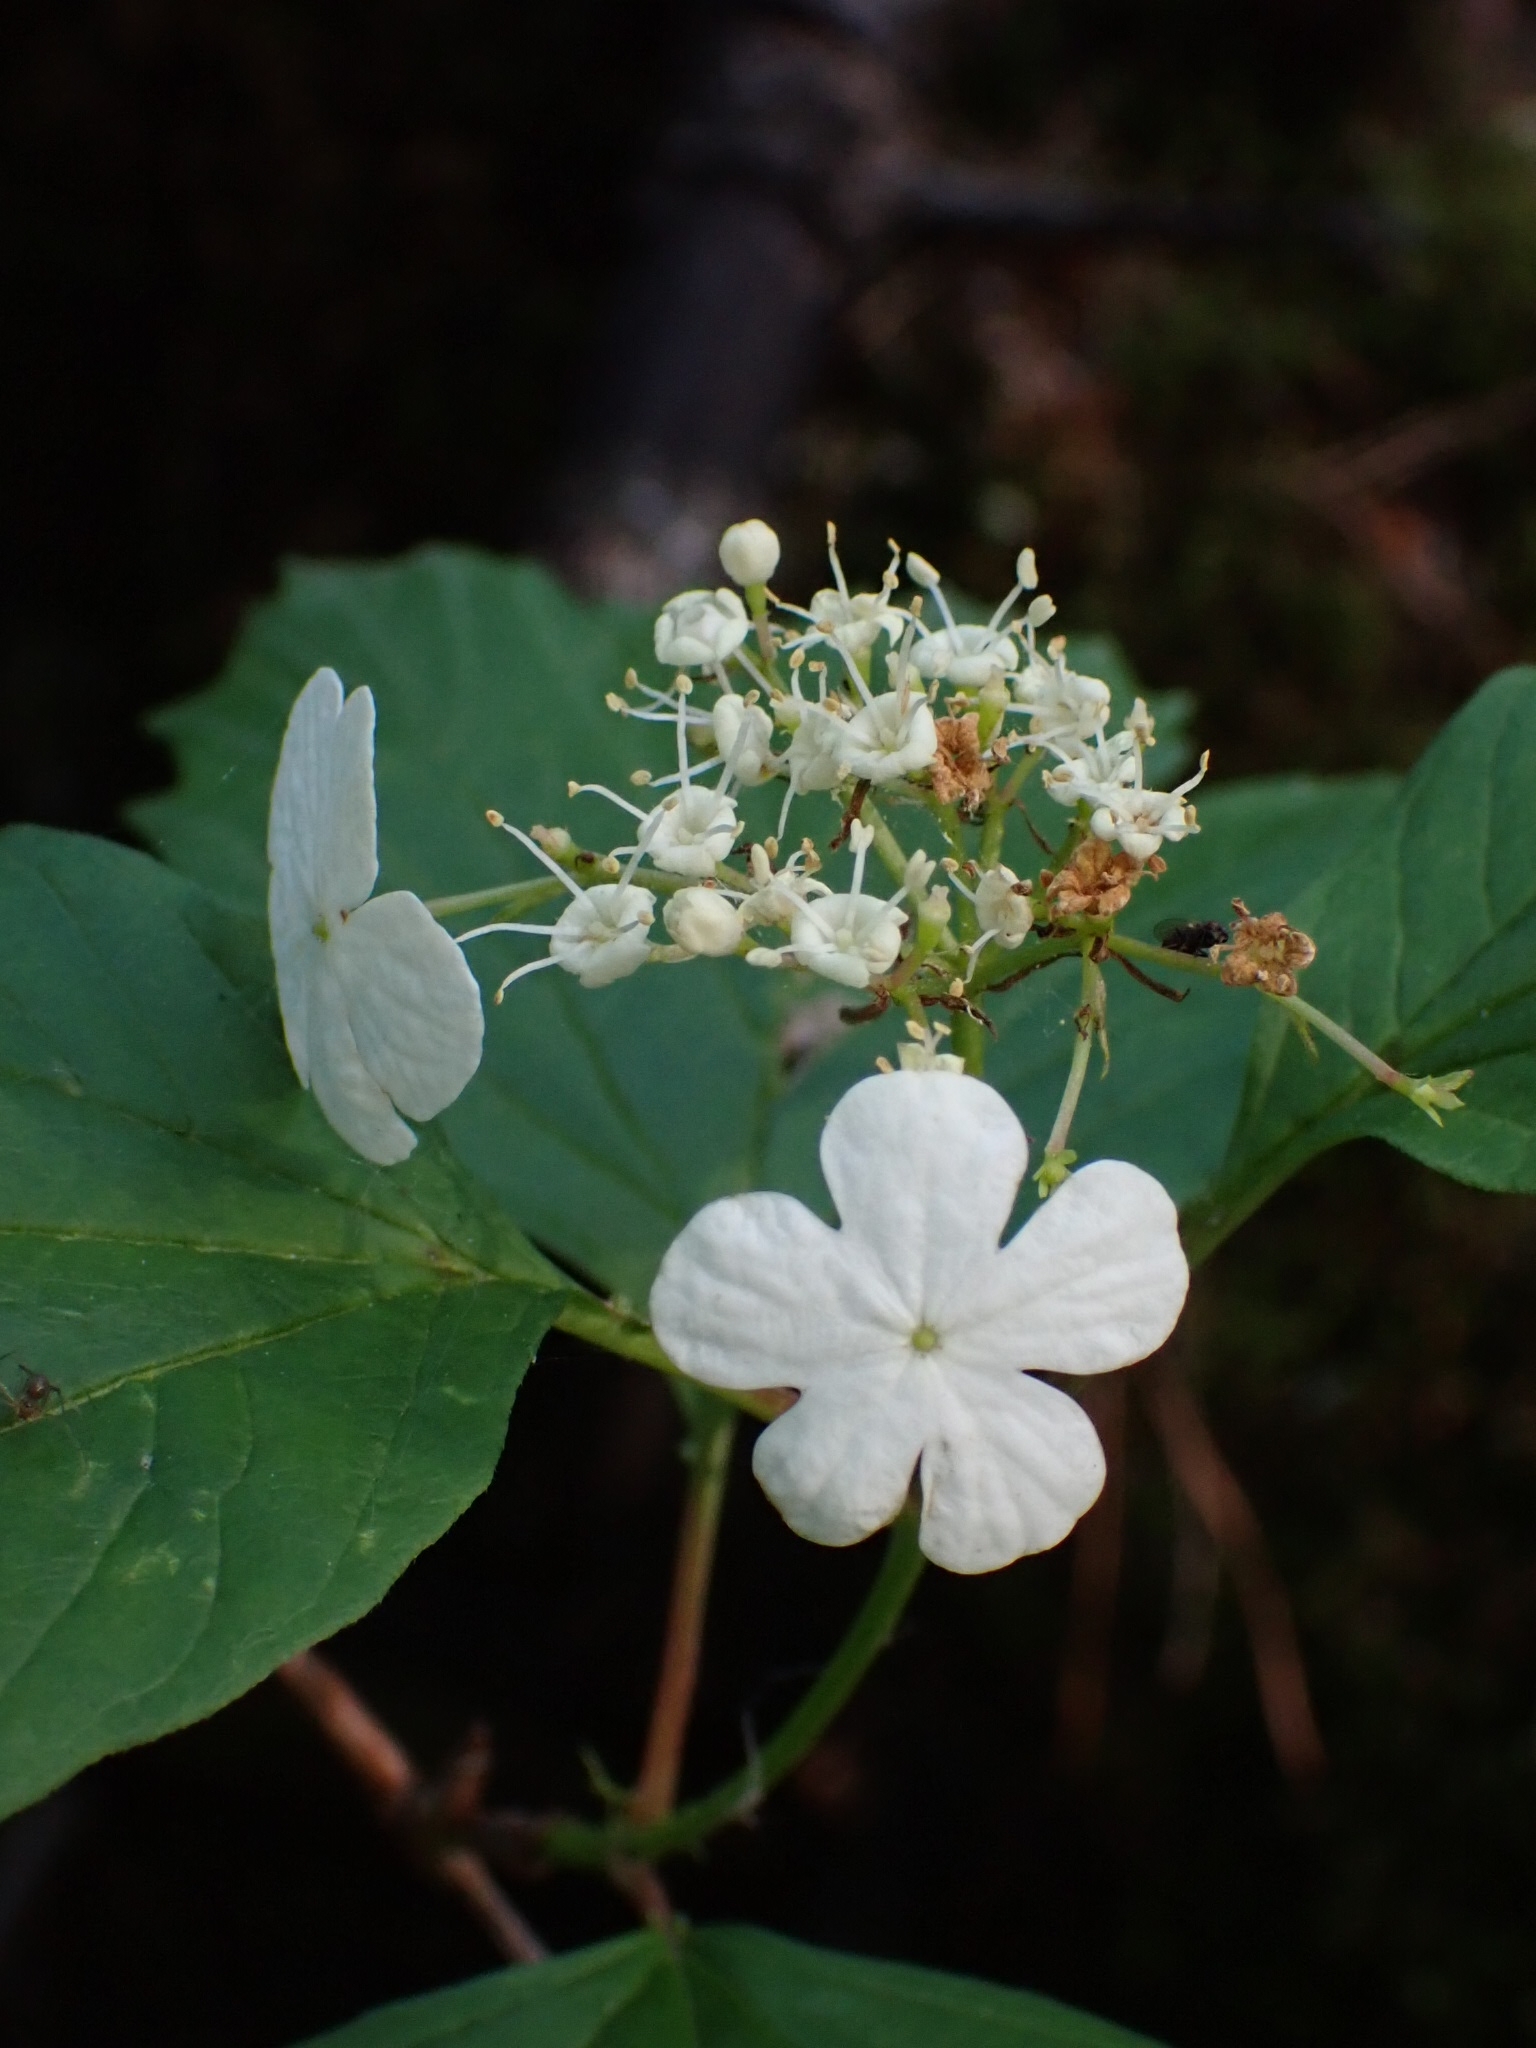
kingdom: Plantae
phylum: Tracheophyta
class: Magnoliopsida
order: Dipsacales
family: Viburnaceae
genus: Viburnum
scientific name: Viburnum opulus
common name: Guelder-rose
